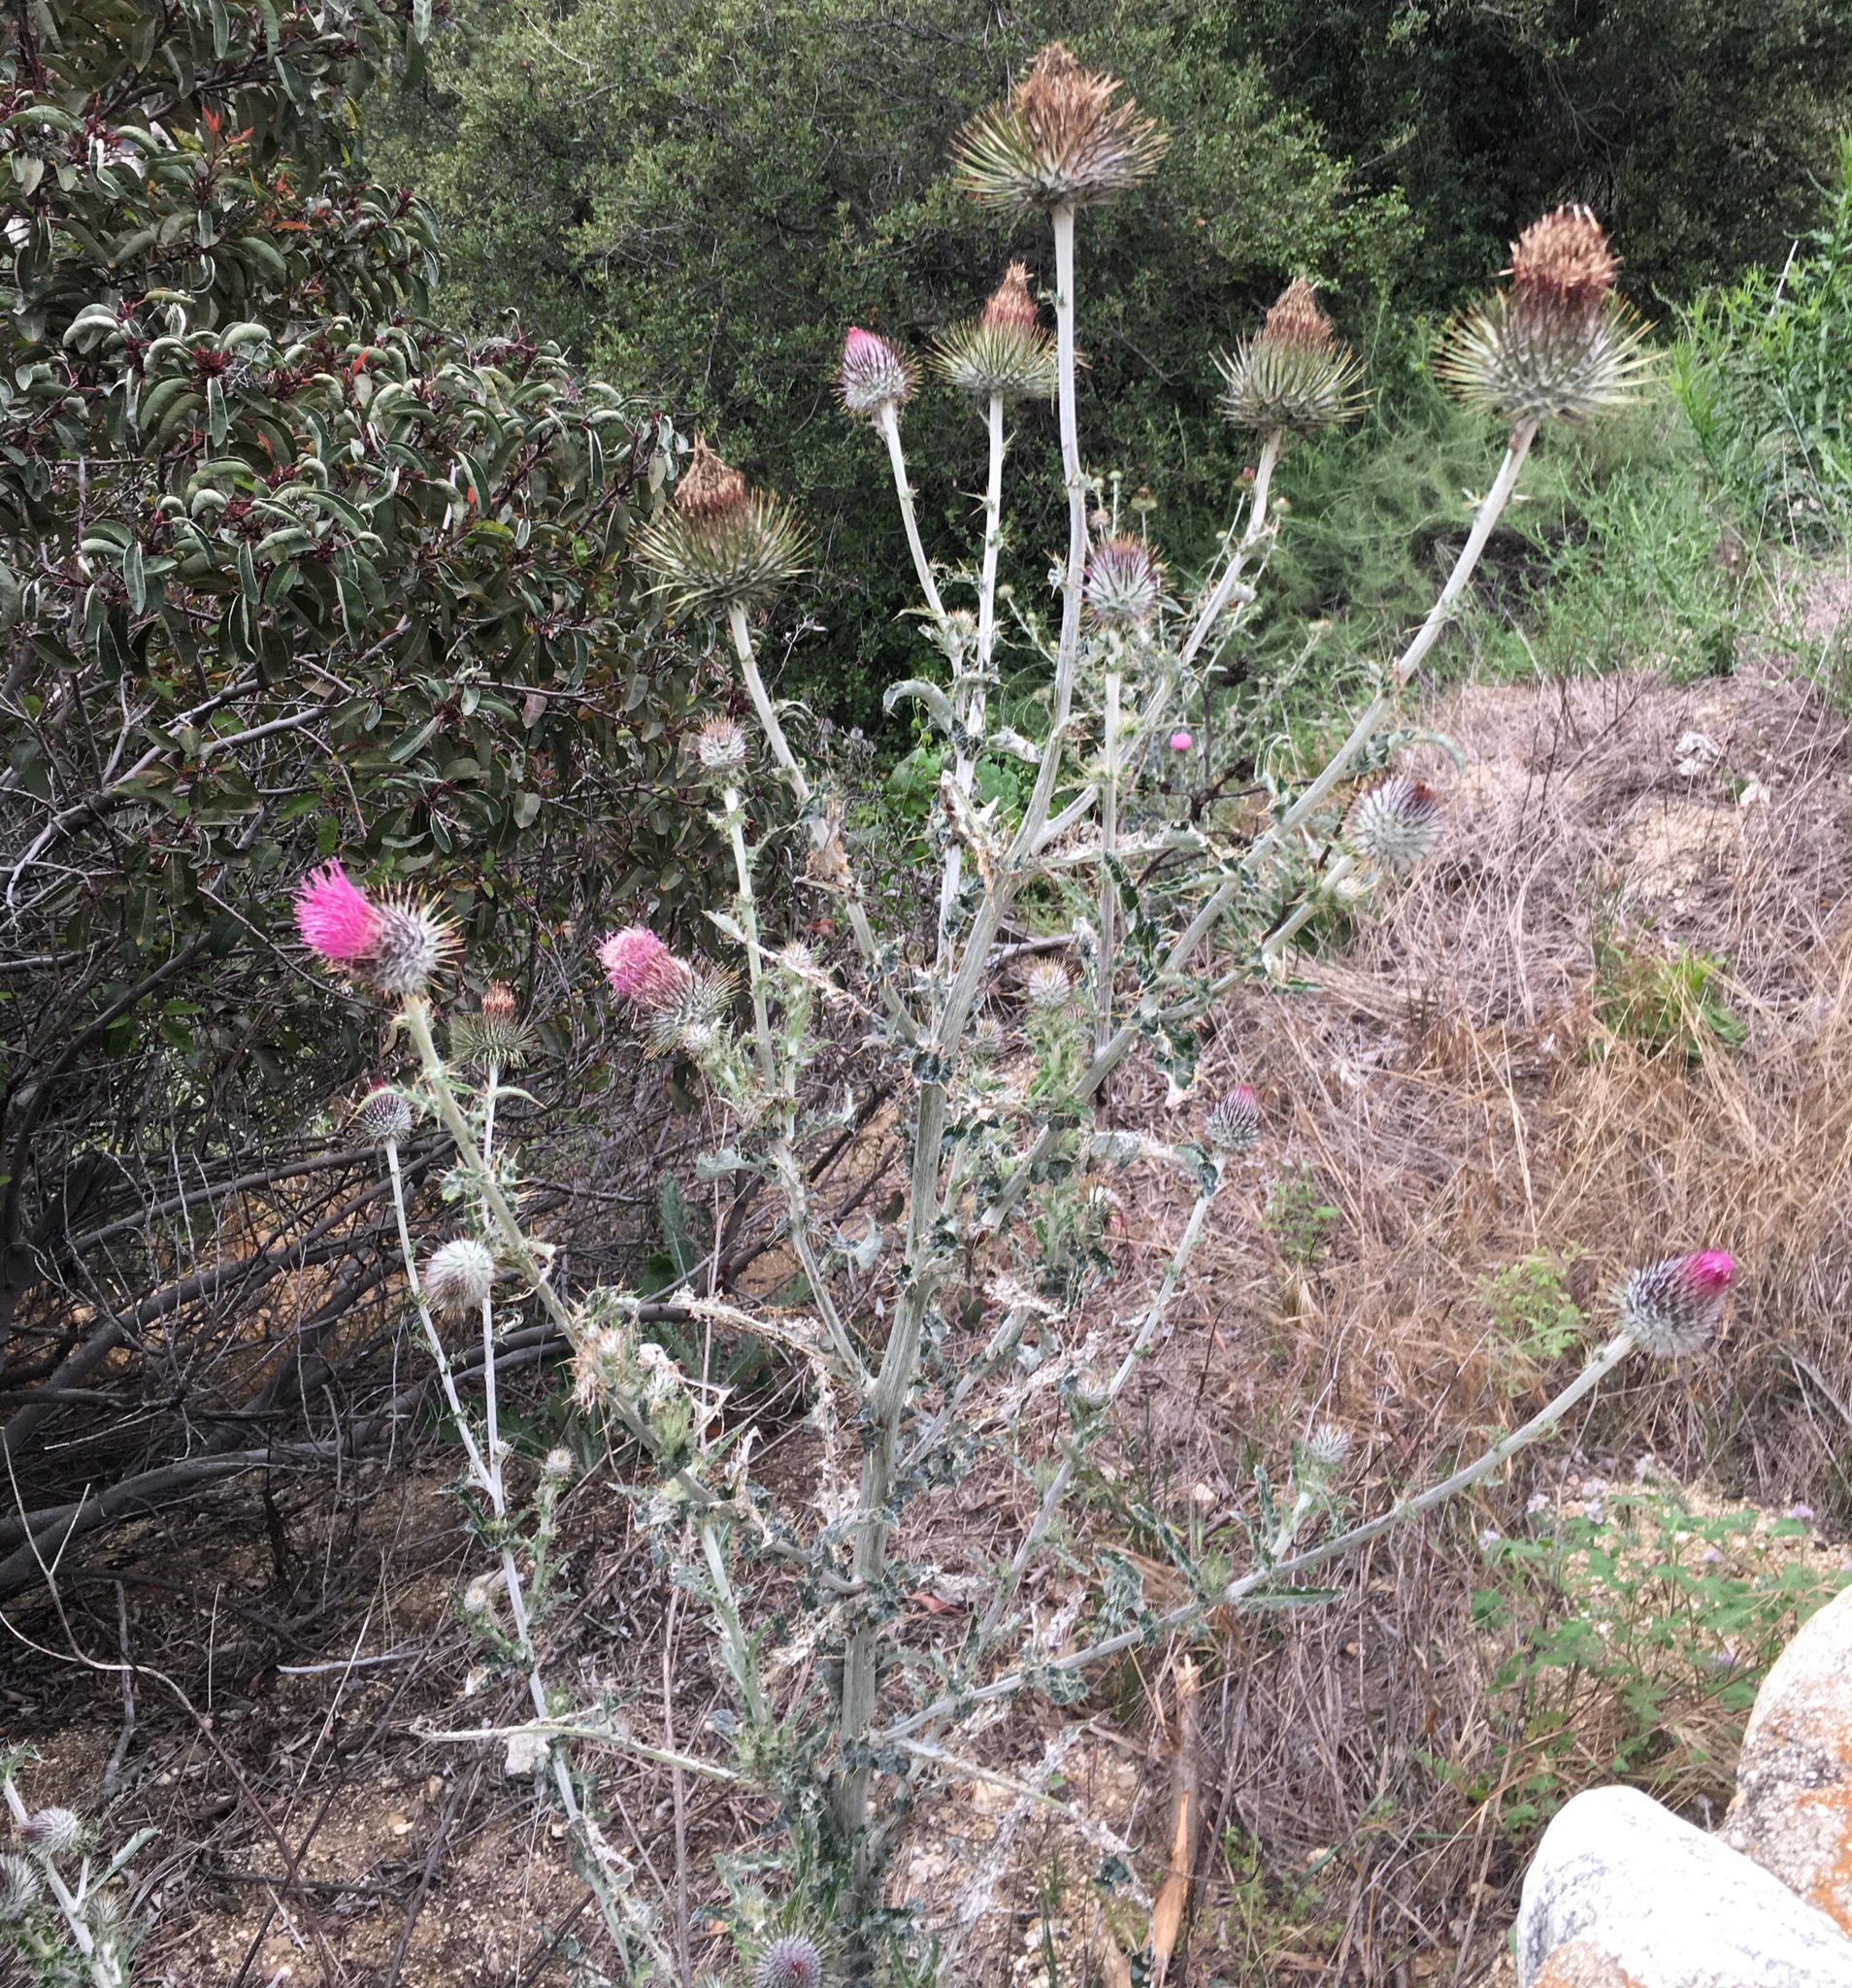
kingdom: Plantae
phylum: Tracheophyta
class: Magnoliopsida
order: Asterales
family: Asteraceae
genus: Cirsium
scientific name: Cirsium occidentale
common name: Western thistle
